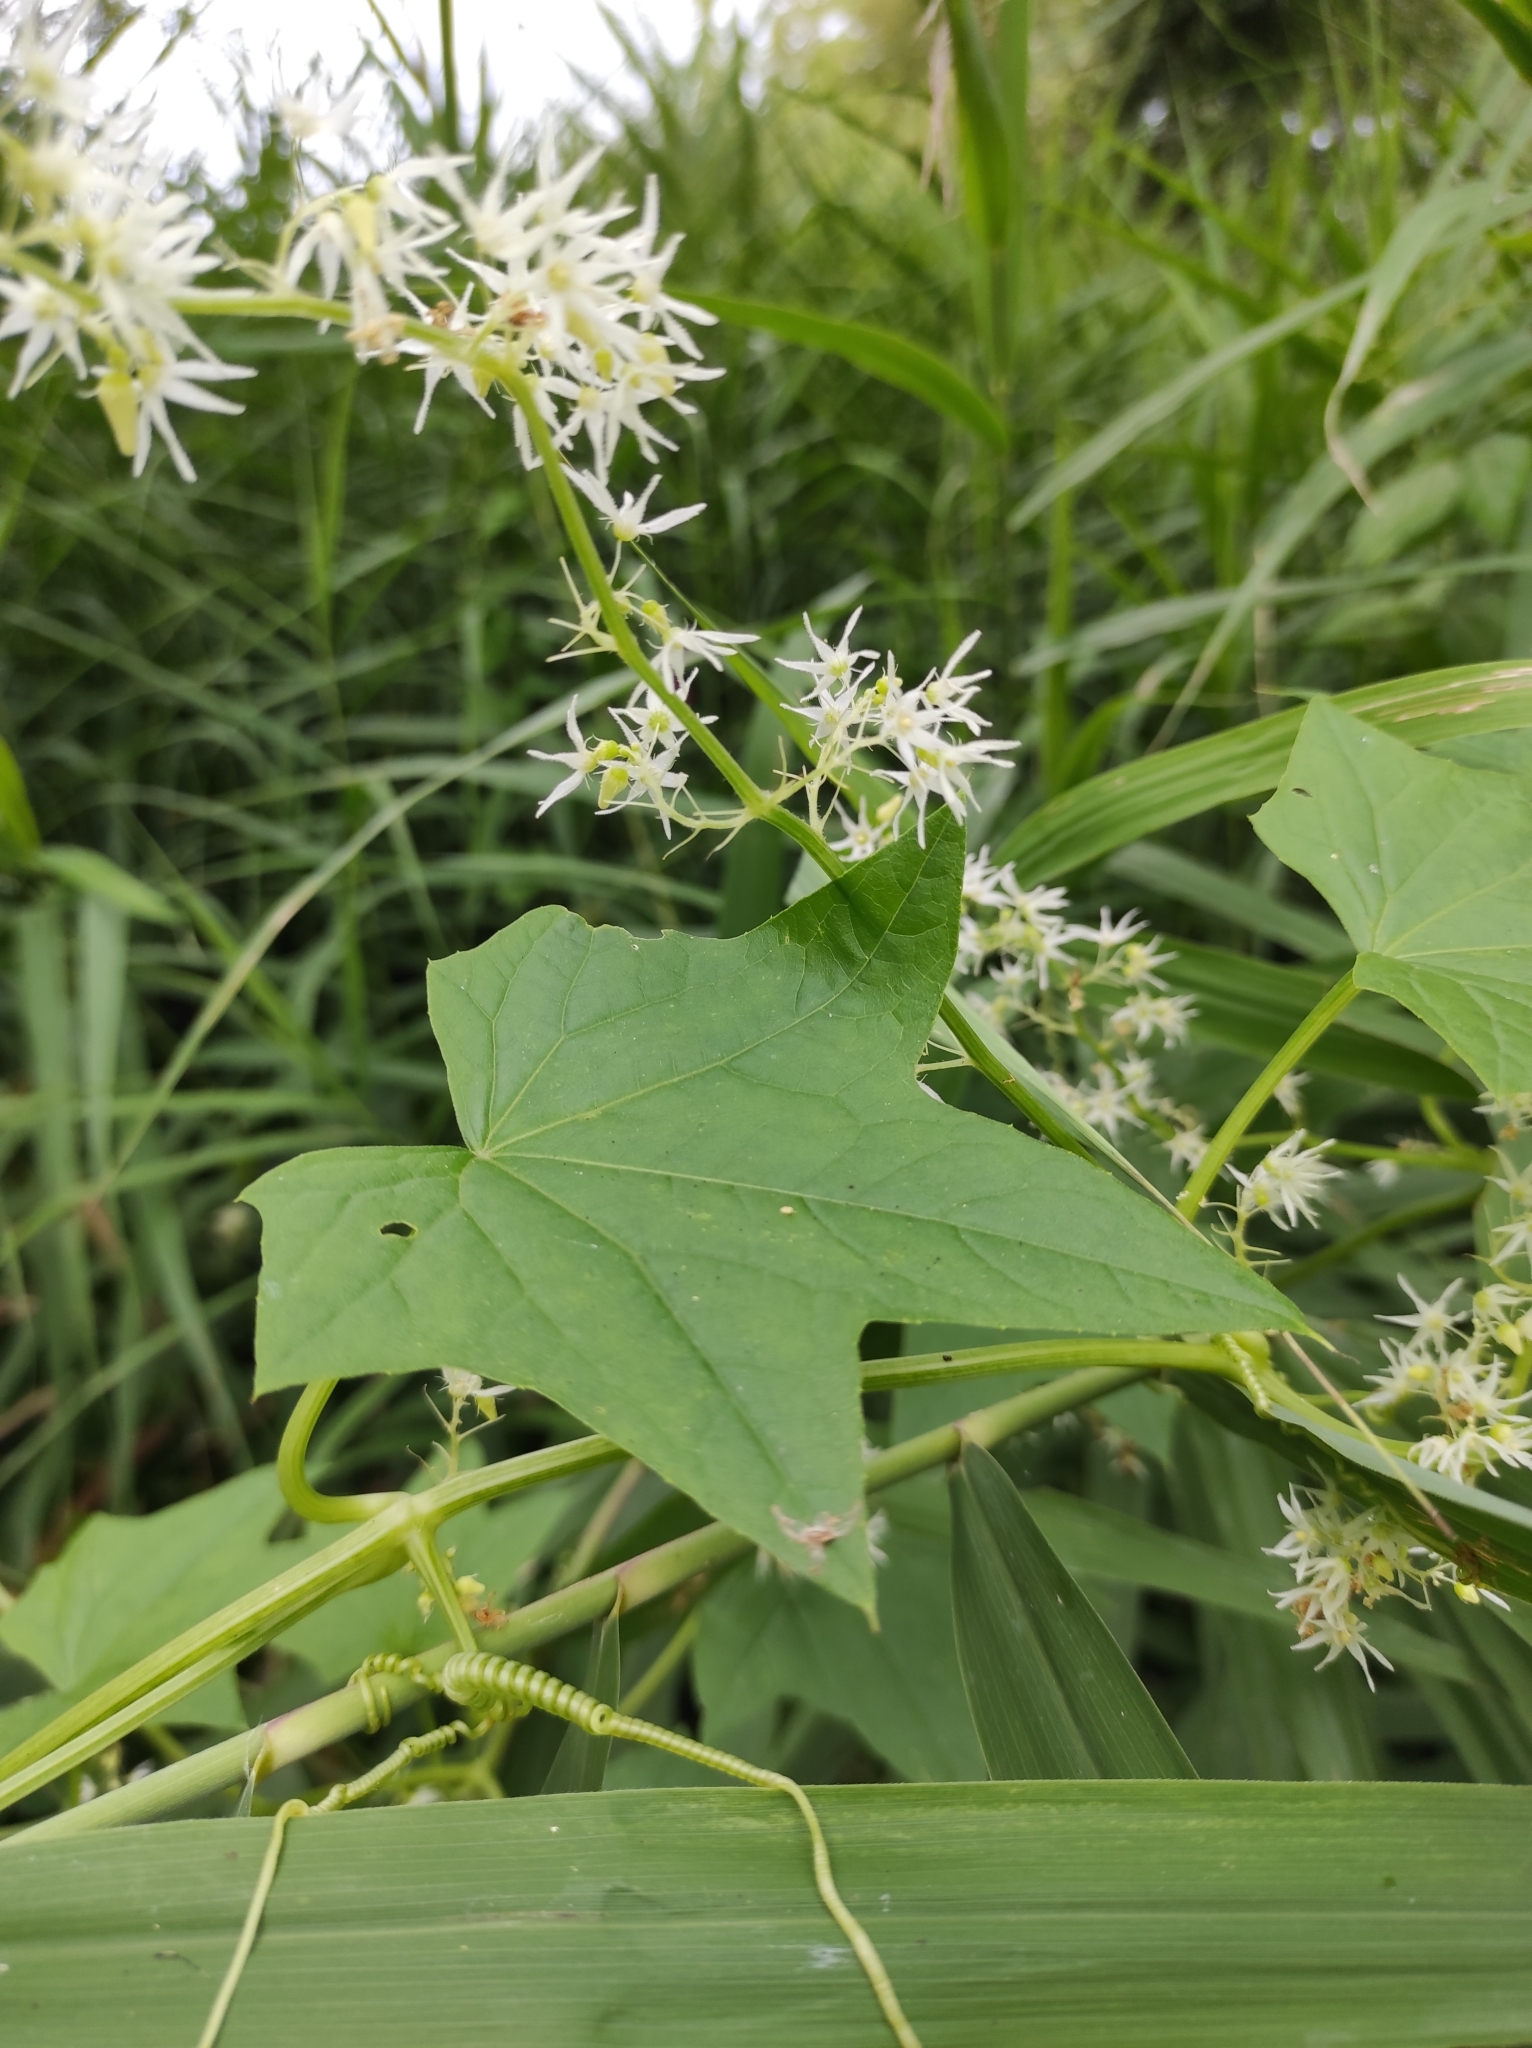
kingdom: Plantae
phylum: Tracheophyta
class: Magnoliopsida
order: Cucurbitales
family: Cucurbitaceae
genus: Echinocystis
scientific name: Echinocystis lobata
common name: Wild cucumber
